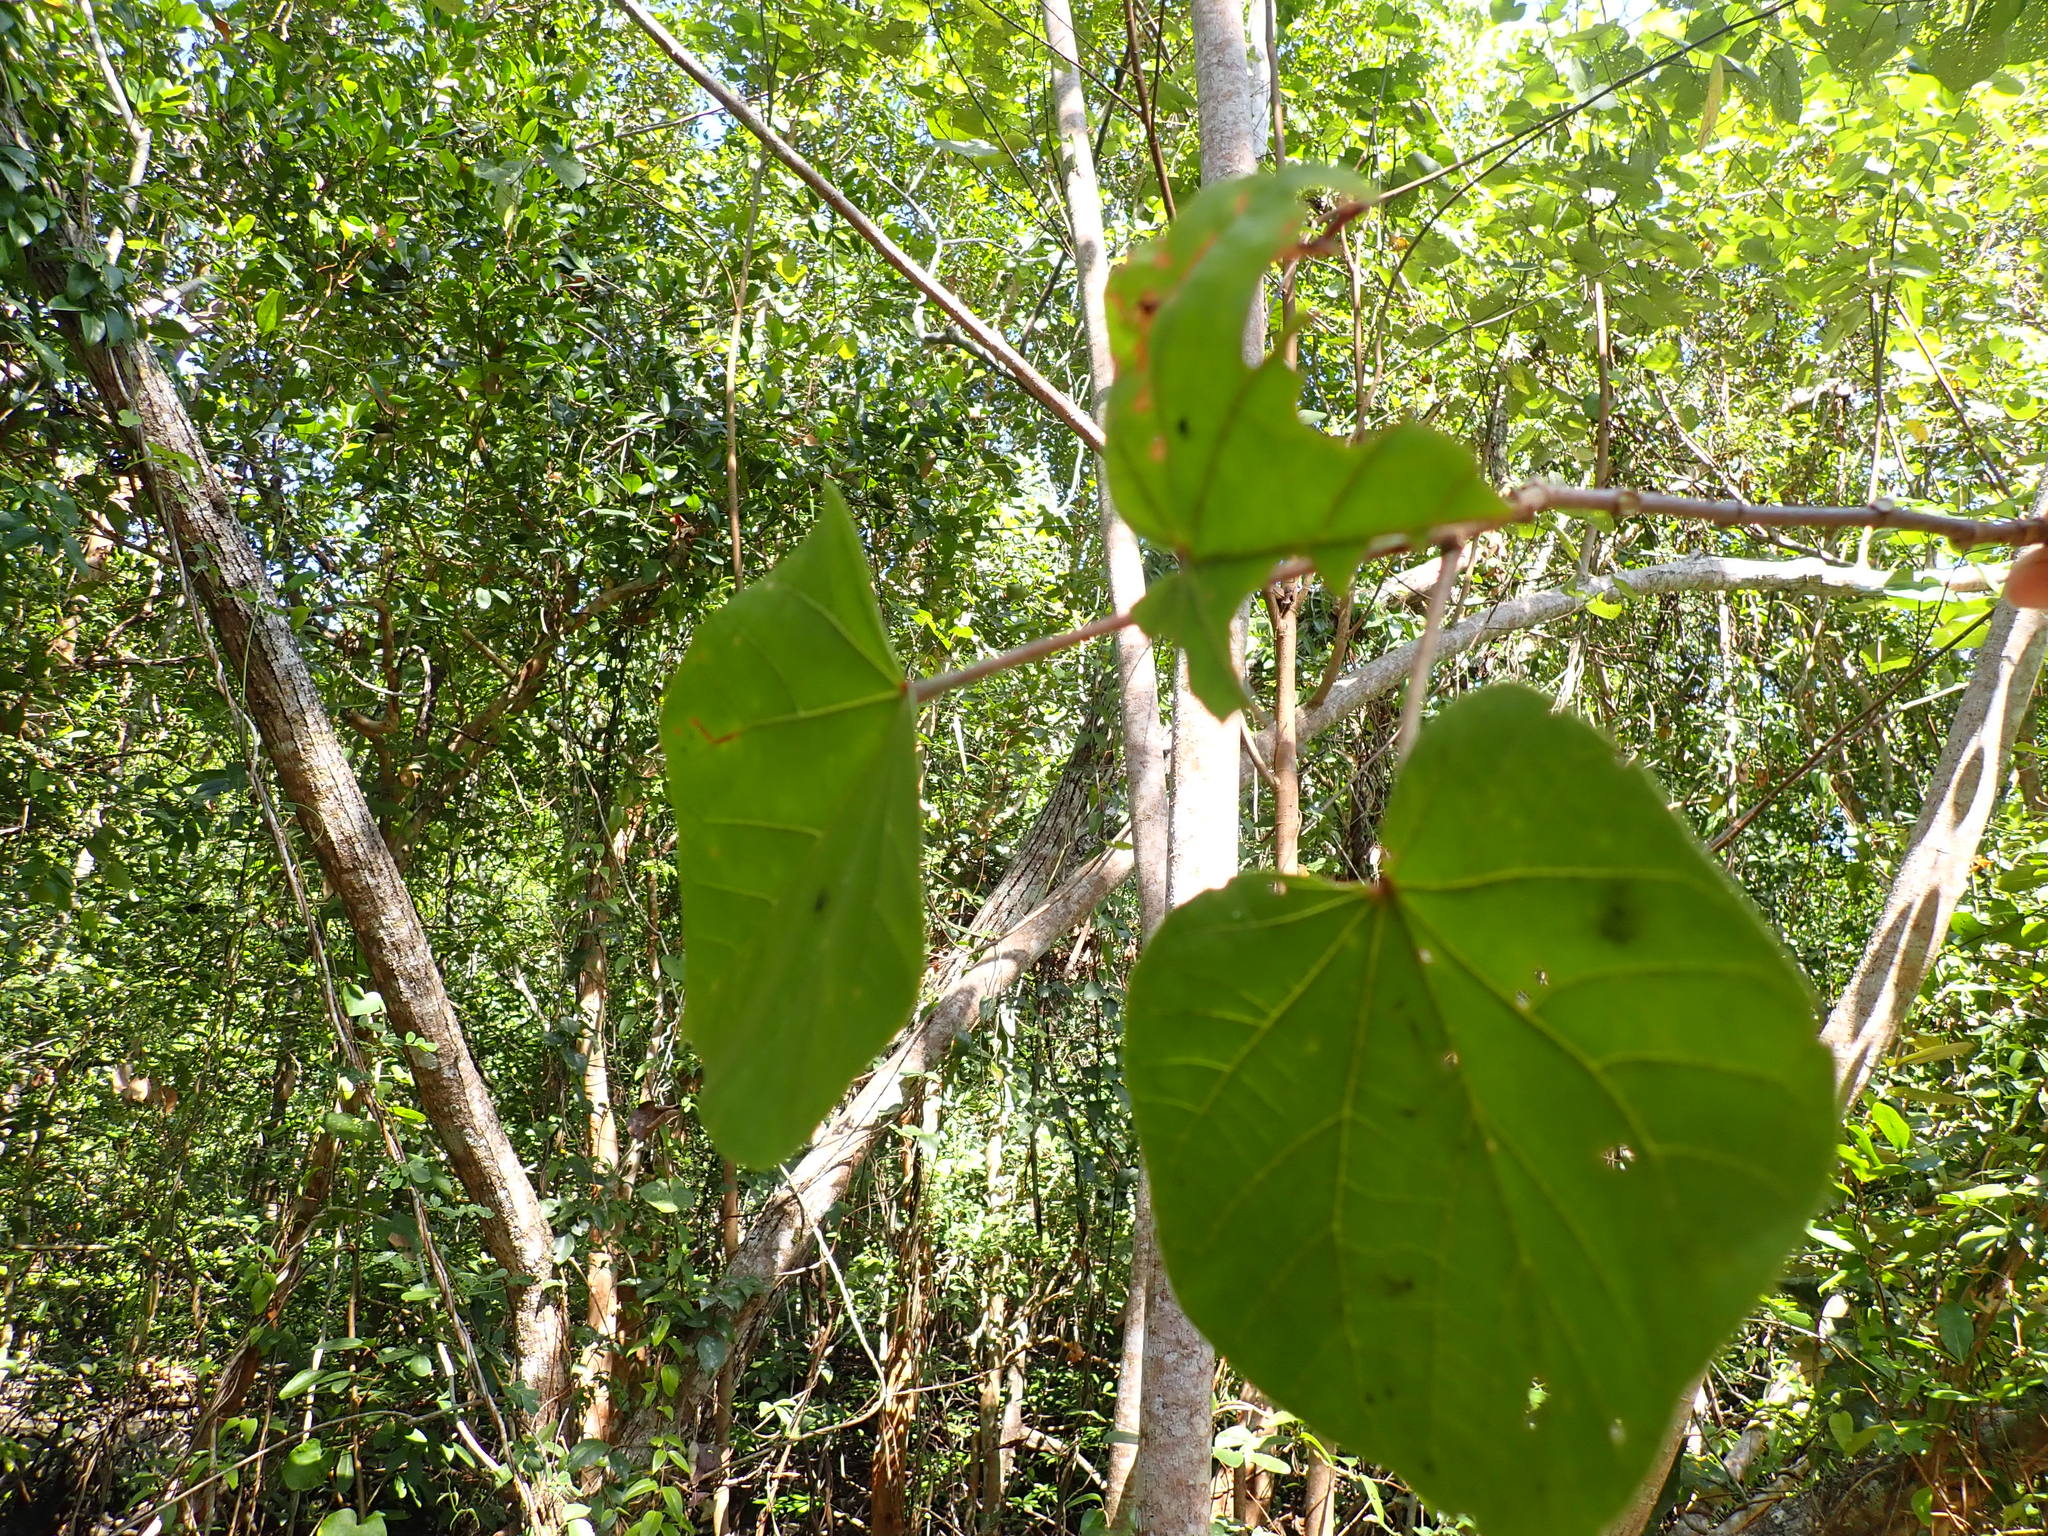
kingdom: Plantae
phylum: Tracheophyta
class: Magnoliopsida
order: Malvales
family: Malvaceae
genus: Talipariti
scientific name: Talipariti tiliaceum
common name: Sea hibiscus
